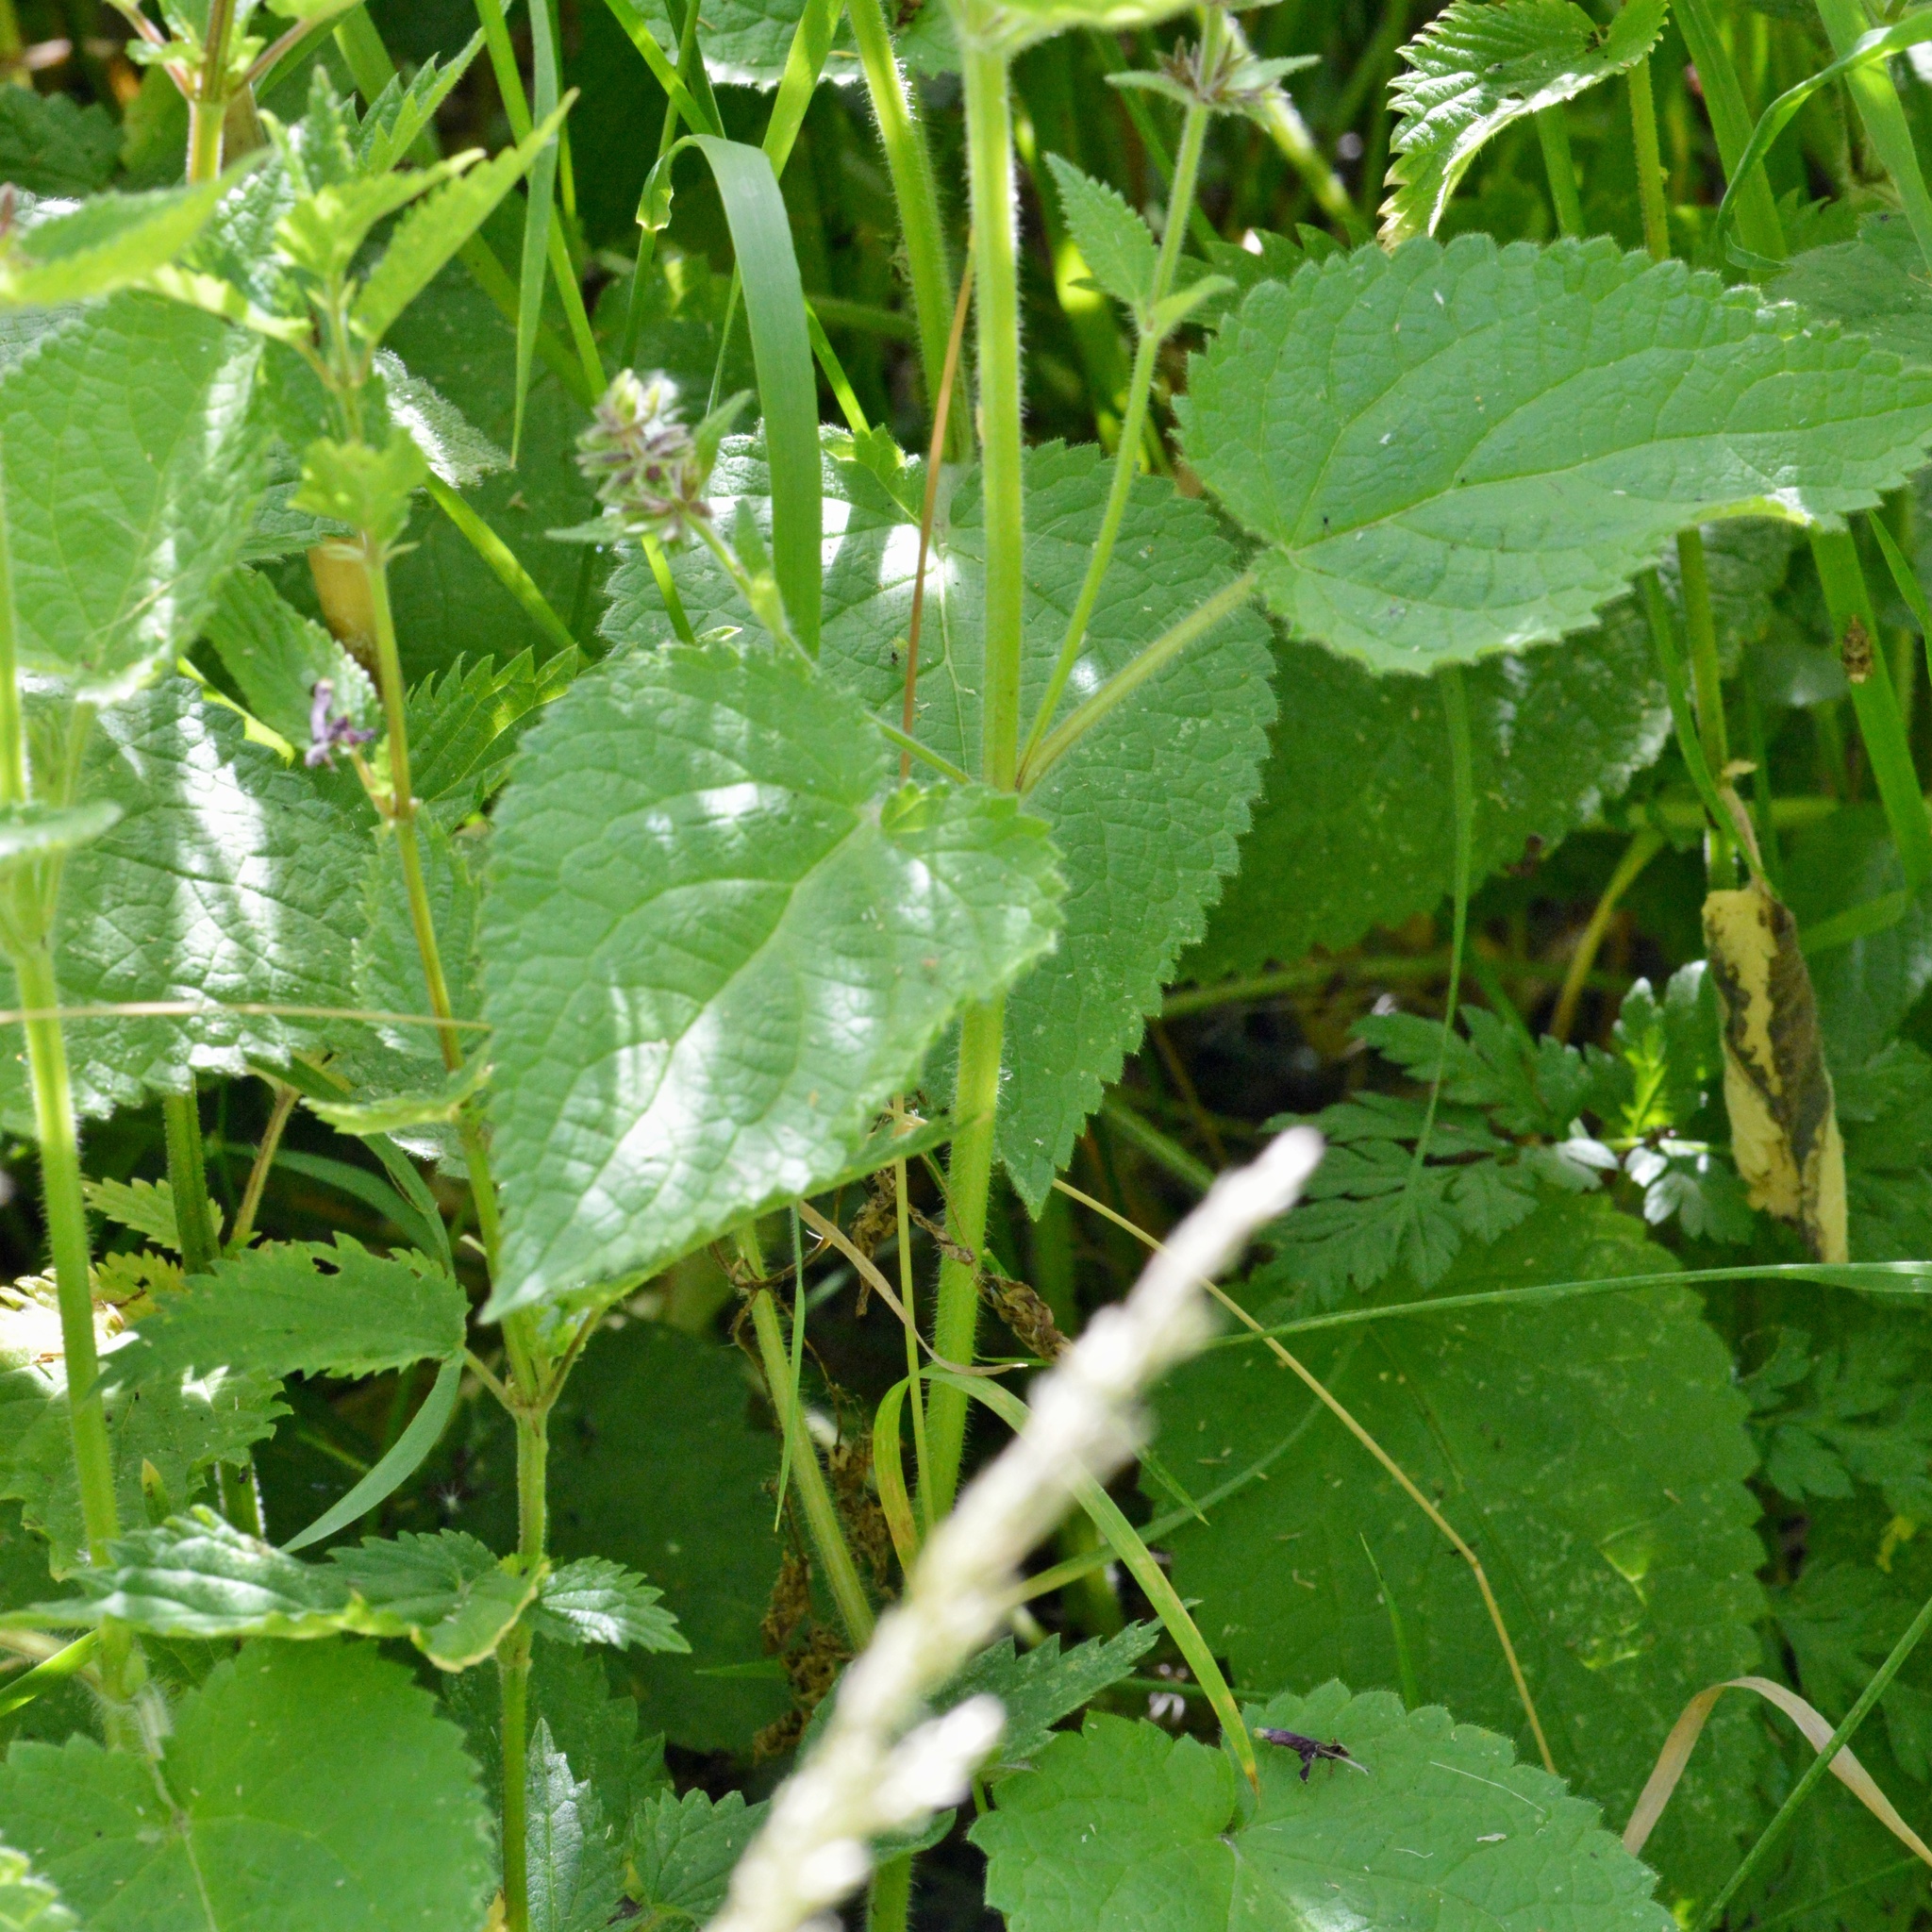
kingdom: Plantae
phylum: Tracheophyta
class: Magnoliopsida
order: Lamiales
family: Lamiaceae
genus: Stachys
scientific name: Stachys sylvatica
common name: Hedge woundwort
